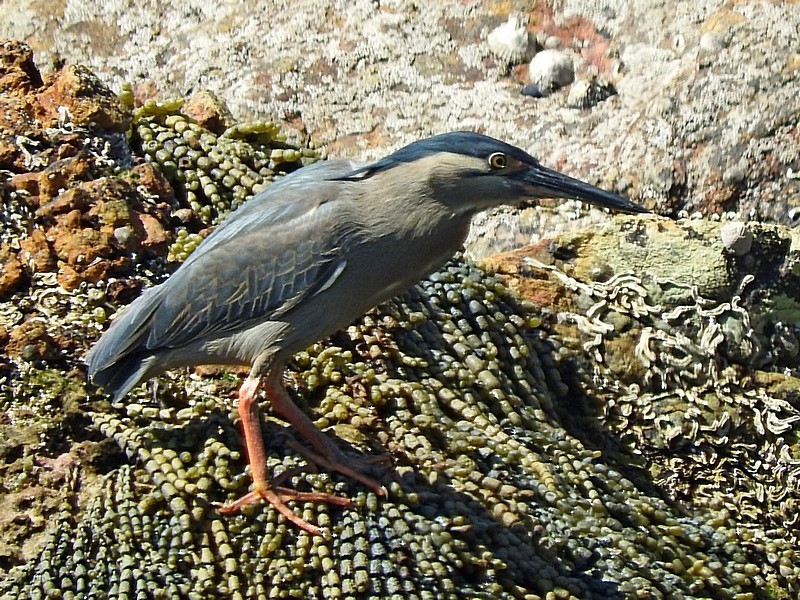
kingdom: Animalia
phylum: Chordata
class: Aves
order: Pelecaniformes
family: Ardeidae
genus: Butorides
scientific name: Butorides striata
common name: Striated heron
